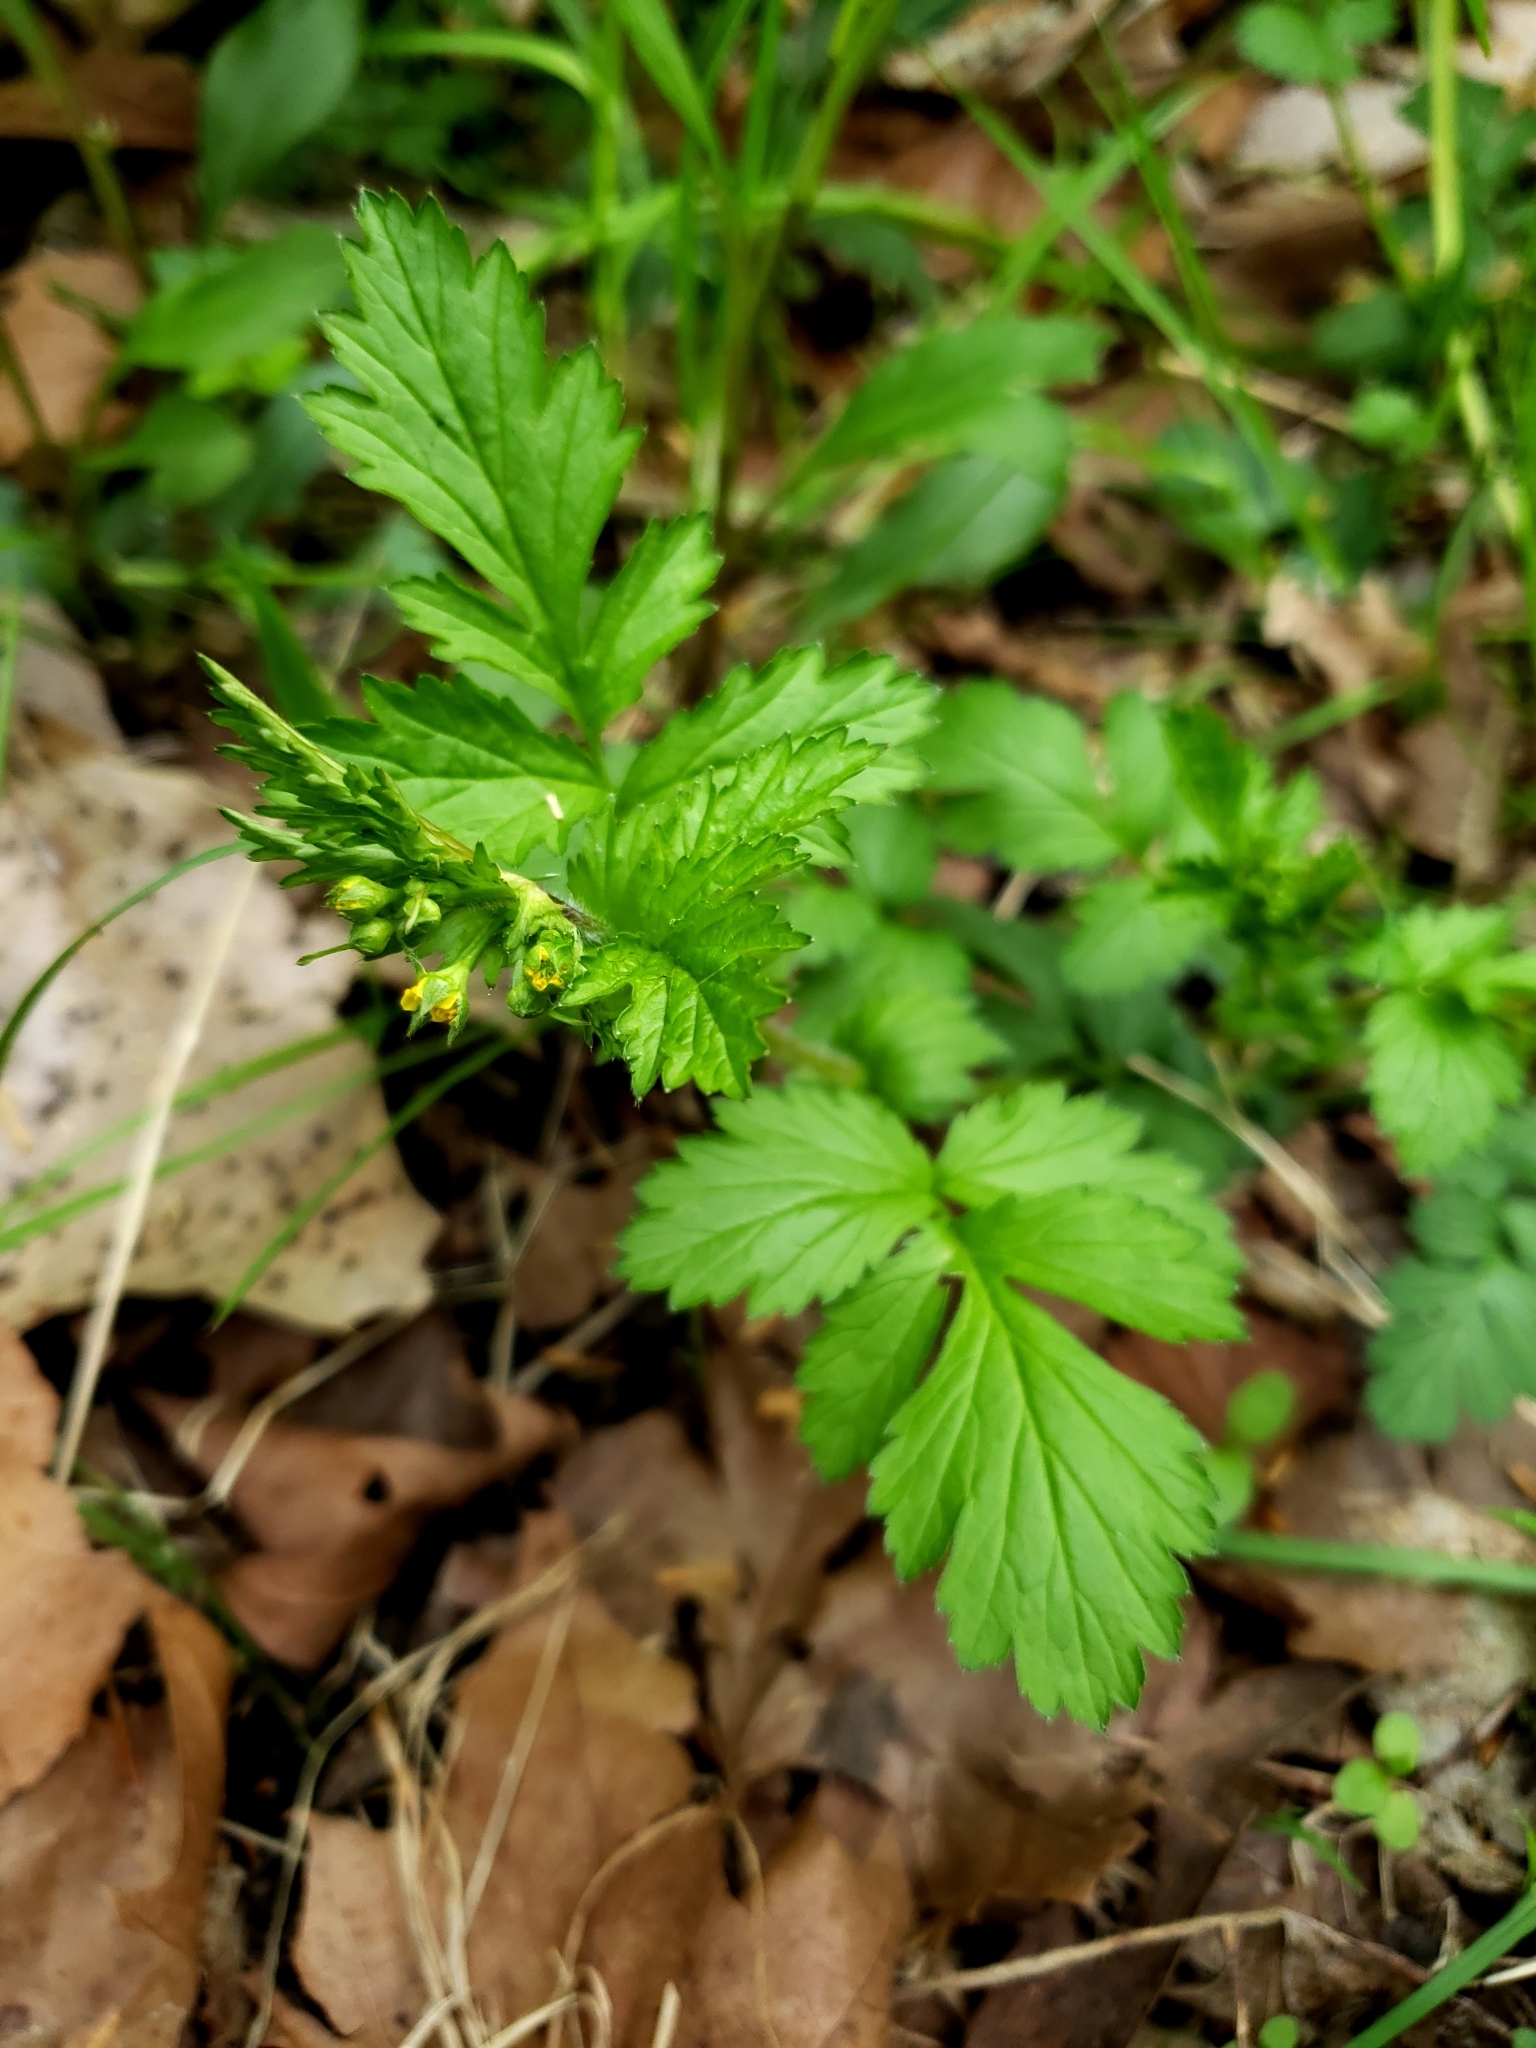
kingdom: Plantae
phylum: Tracheophyta
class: Magnoliopsida
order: Rosales
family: Rosaceae
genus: Geum
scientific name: Geum vernum
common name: Spring avens
